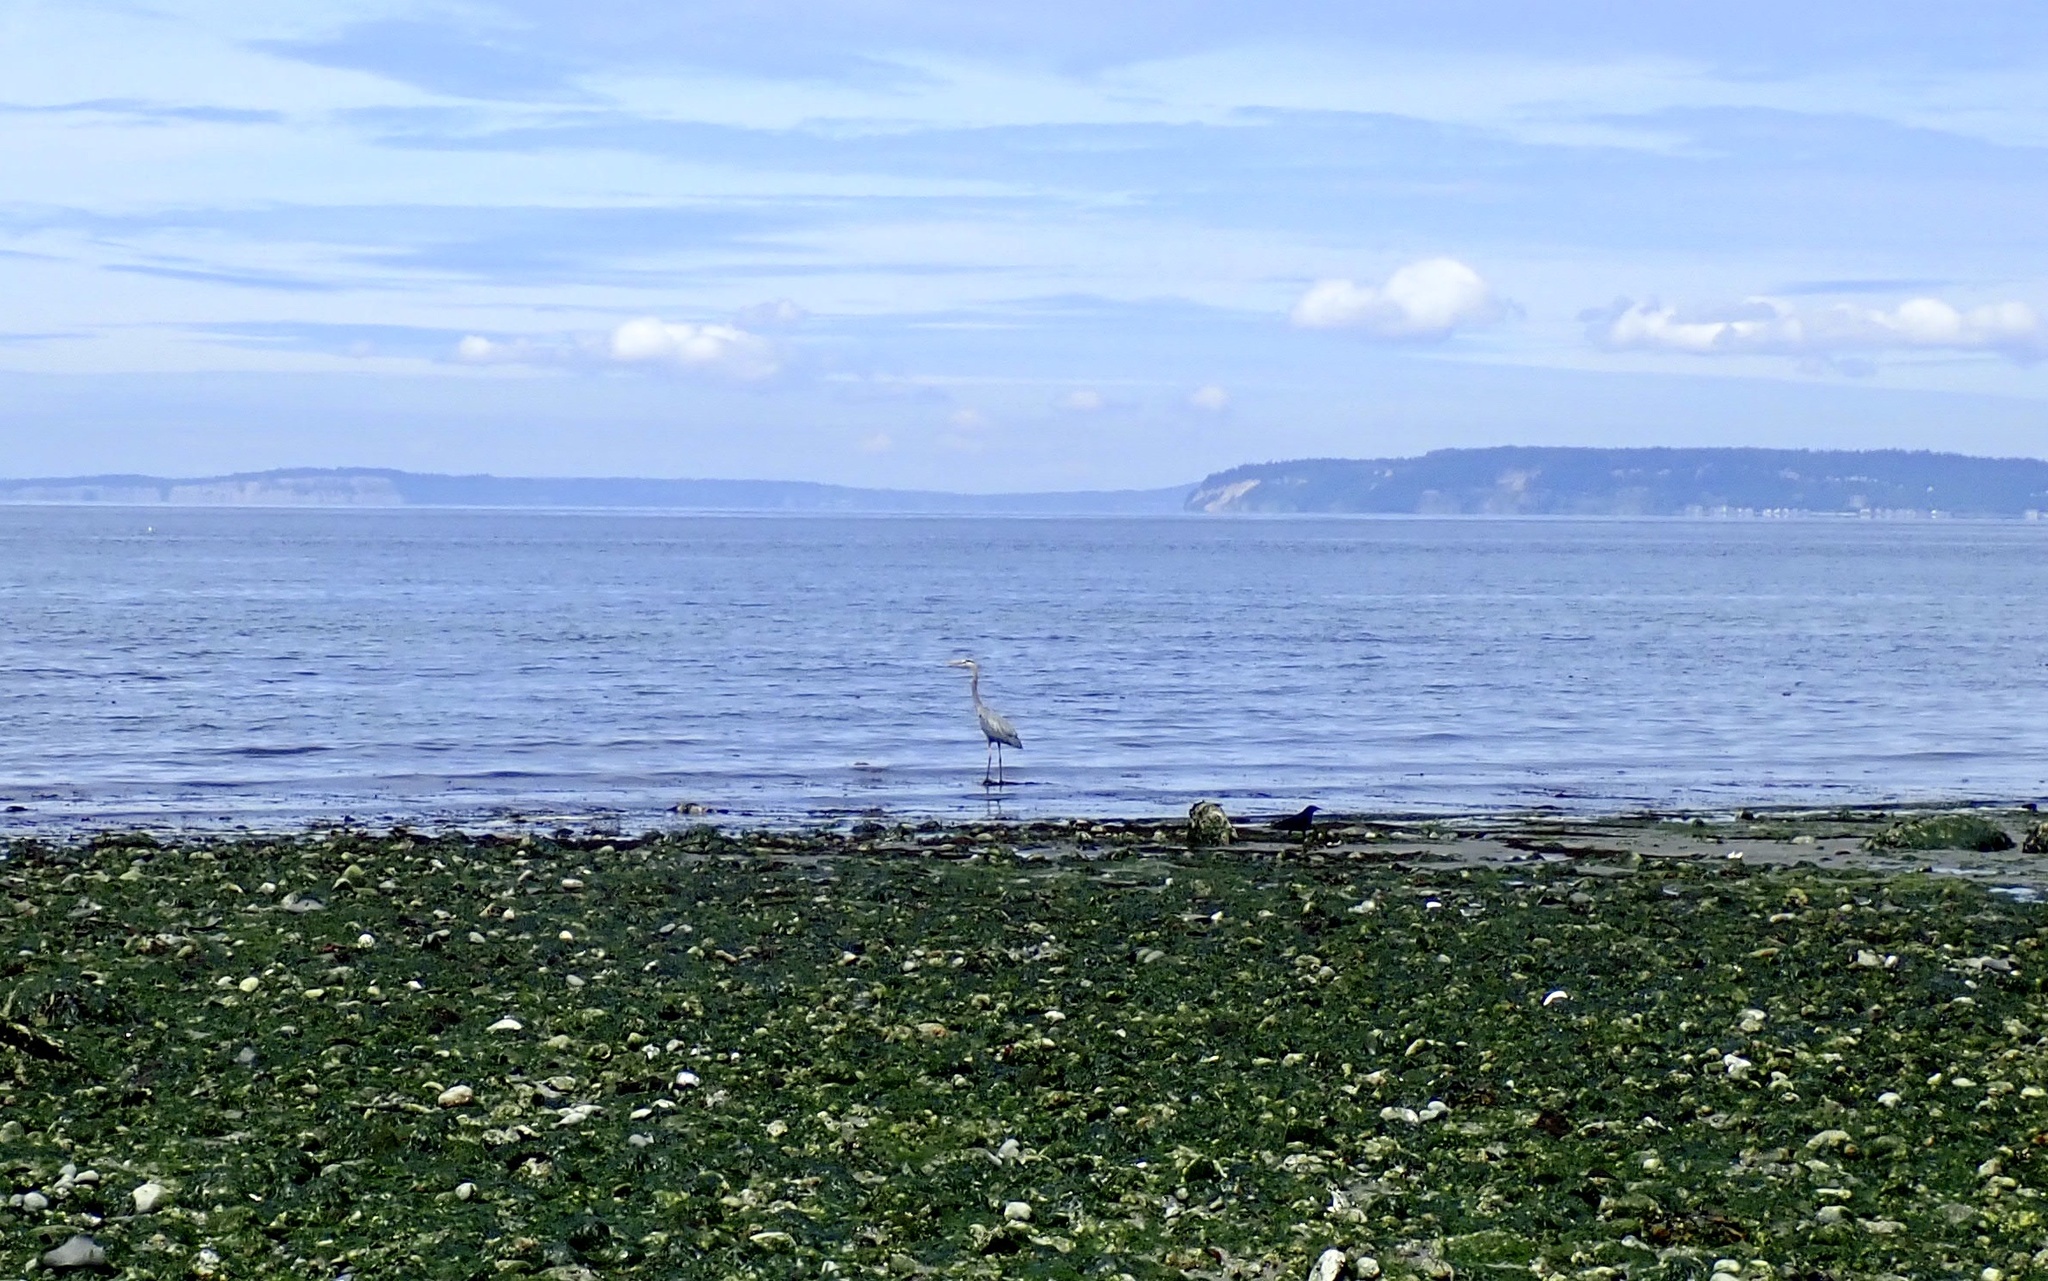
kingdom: Animalia
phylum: Chordata
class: Aves
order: Pelecaniformes
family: Ardeidae
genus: Ardea
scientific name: Ardea herodias
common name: Great blue heron
